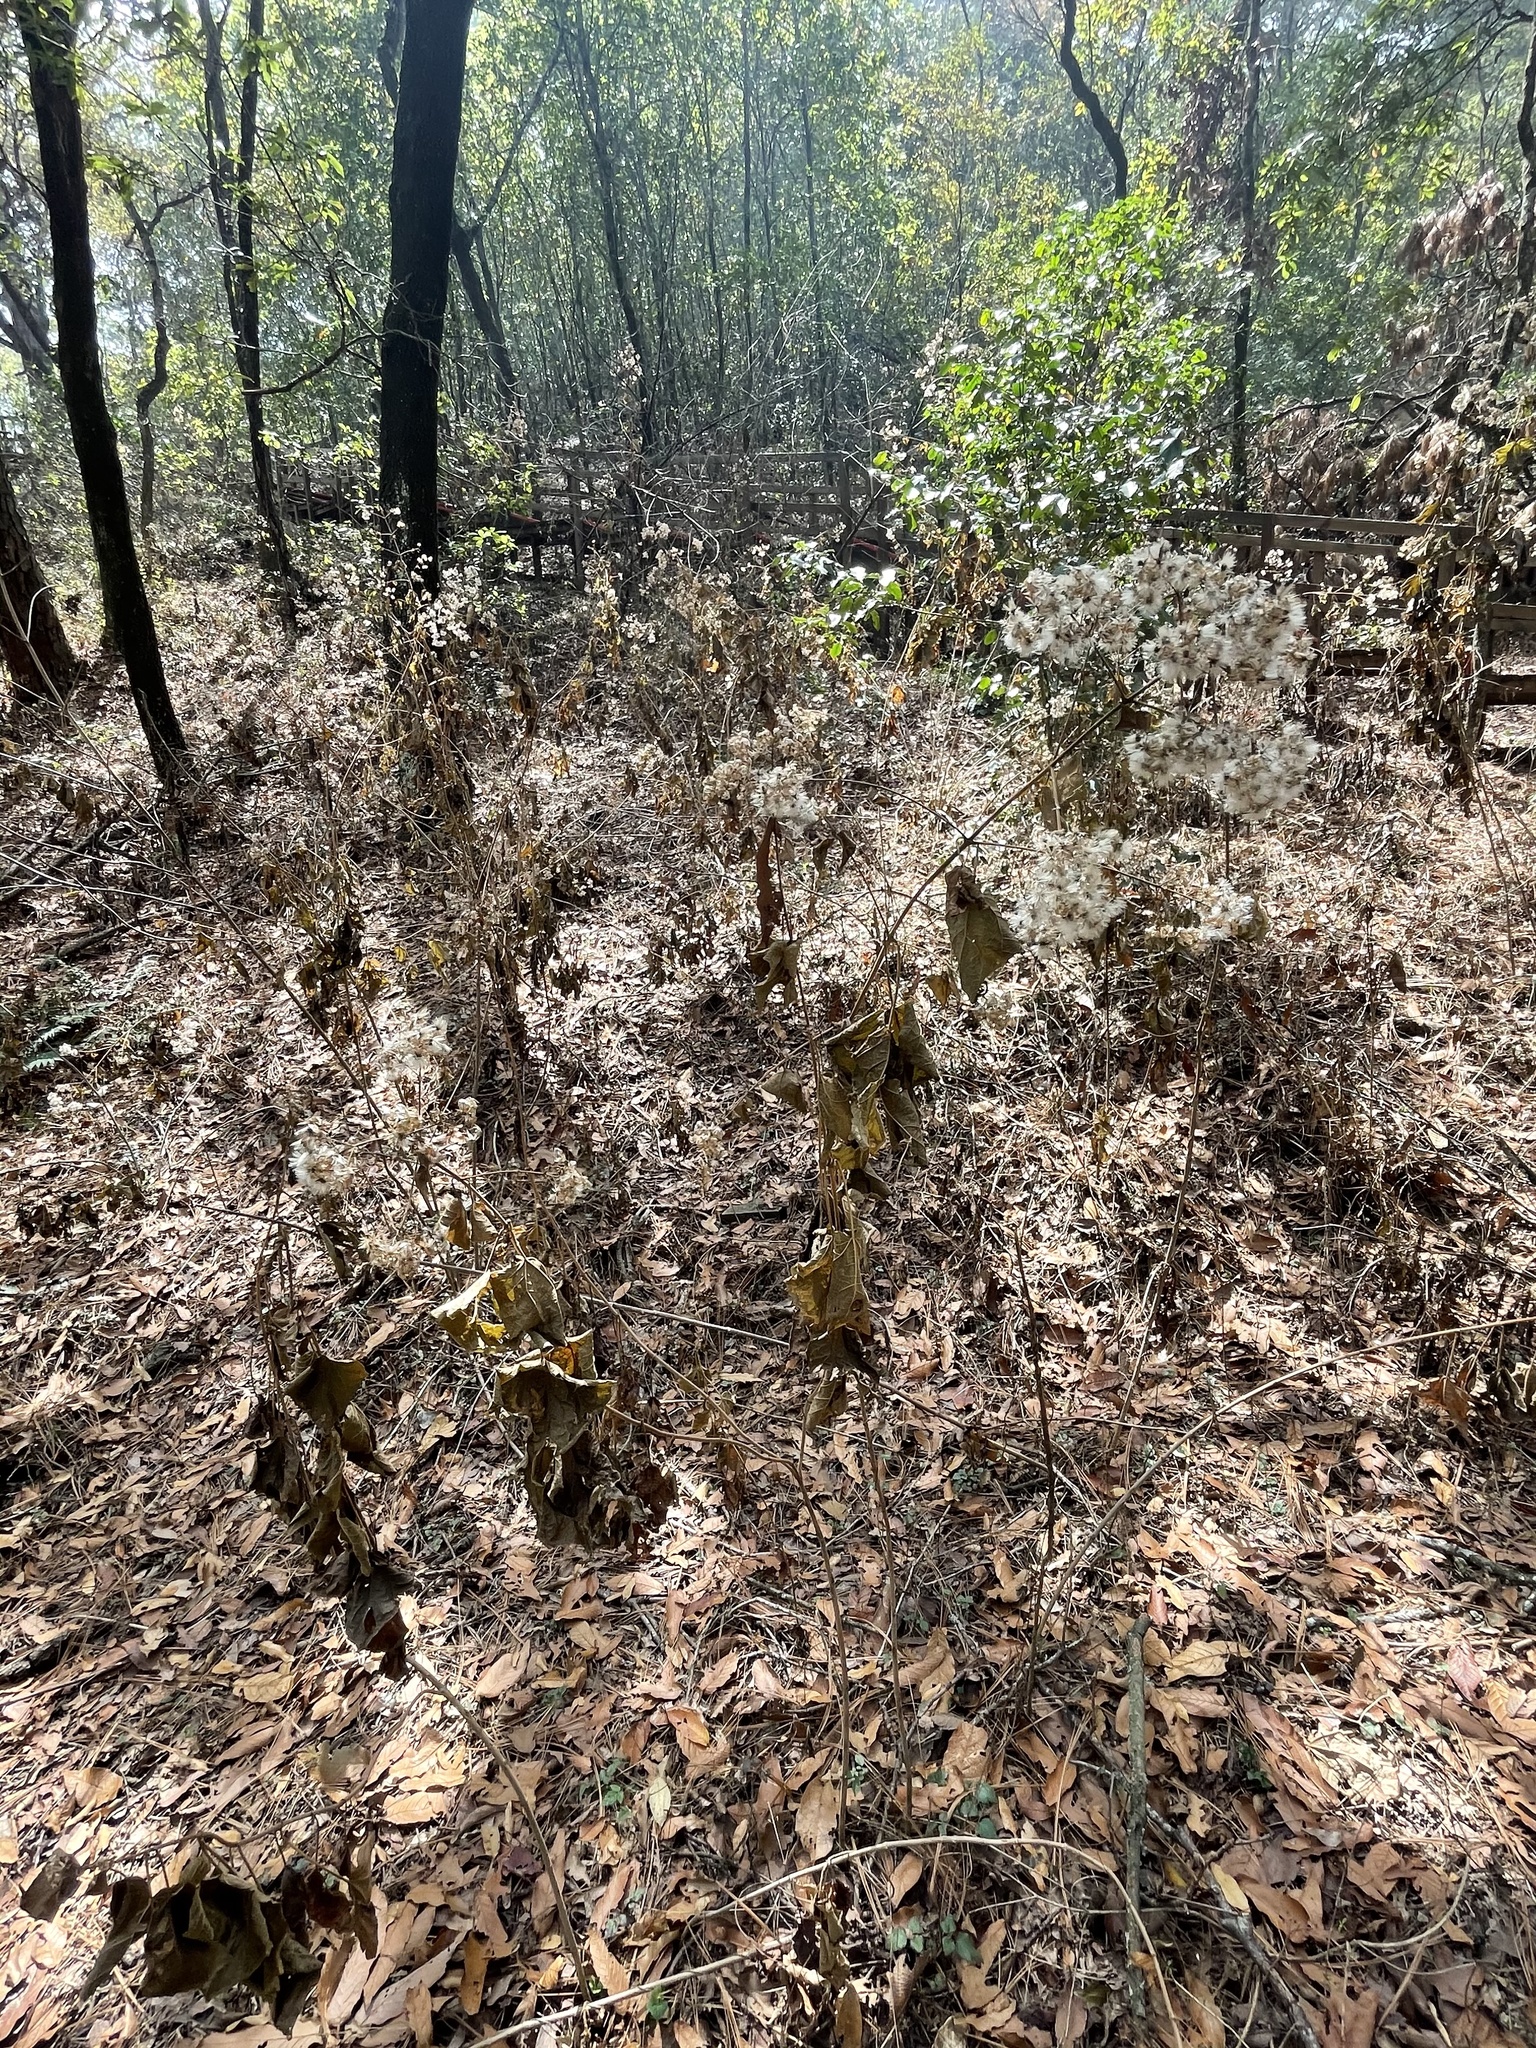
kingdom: Plantae
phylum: Tracheophyta
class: Magnoliopsida
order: Asterales
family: Asteraceae
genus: Peteravenia
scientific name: Peteravenia malvifolia
